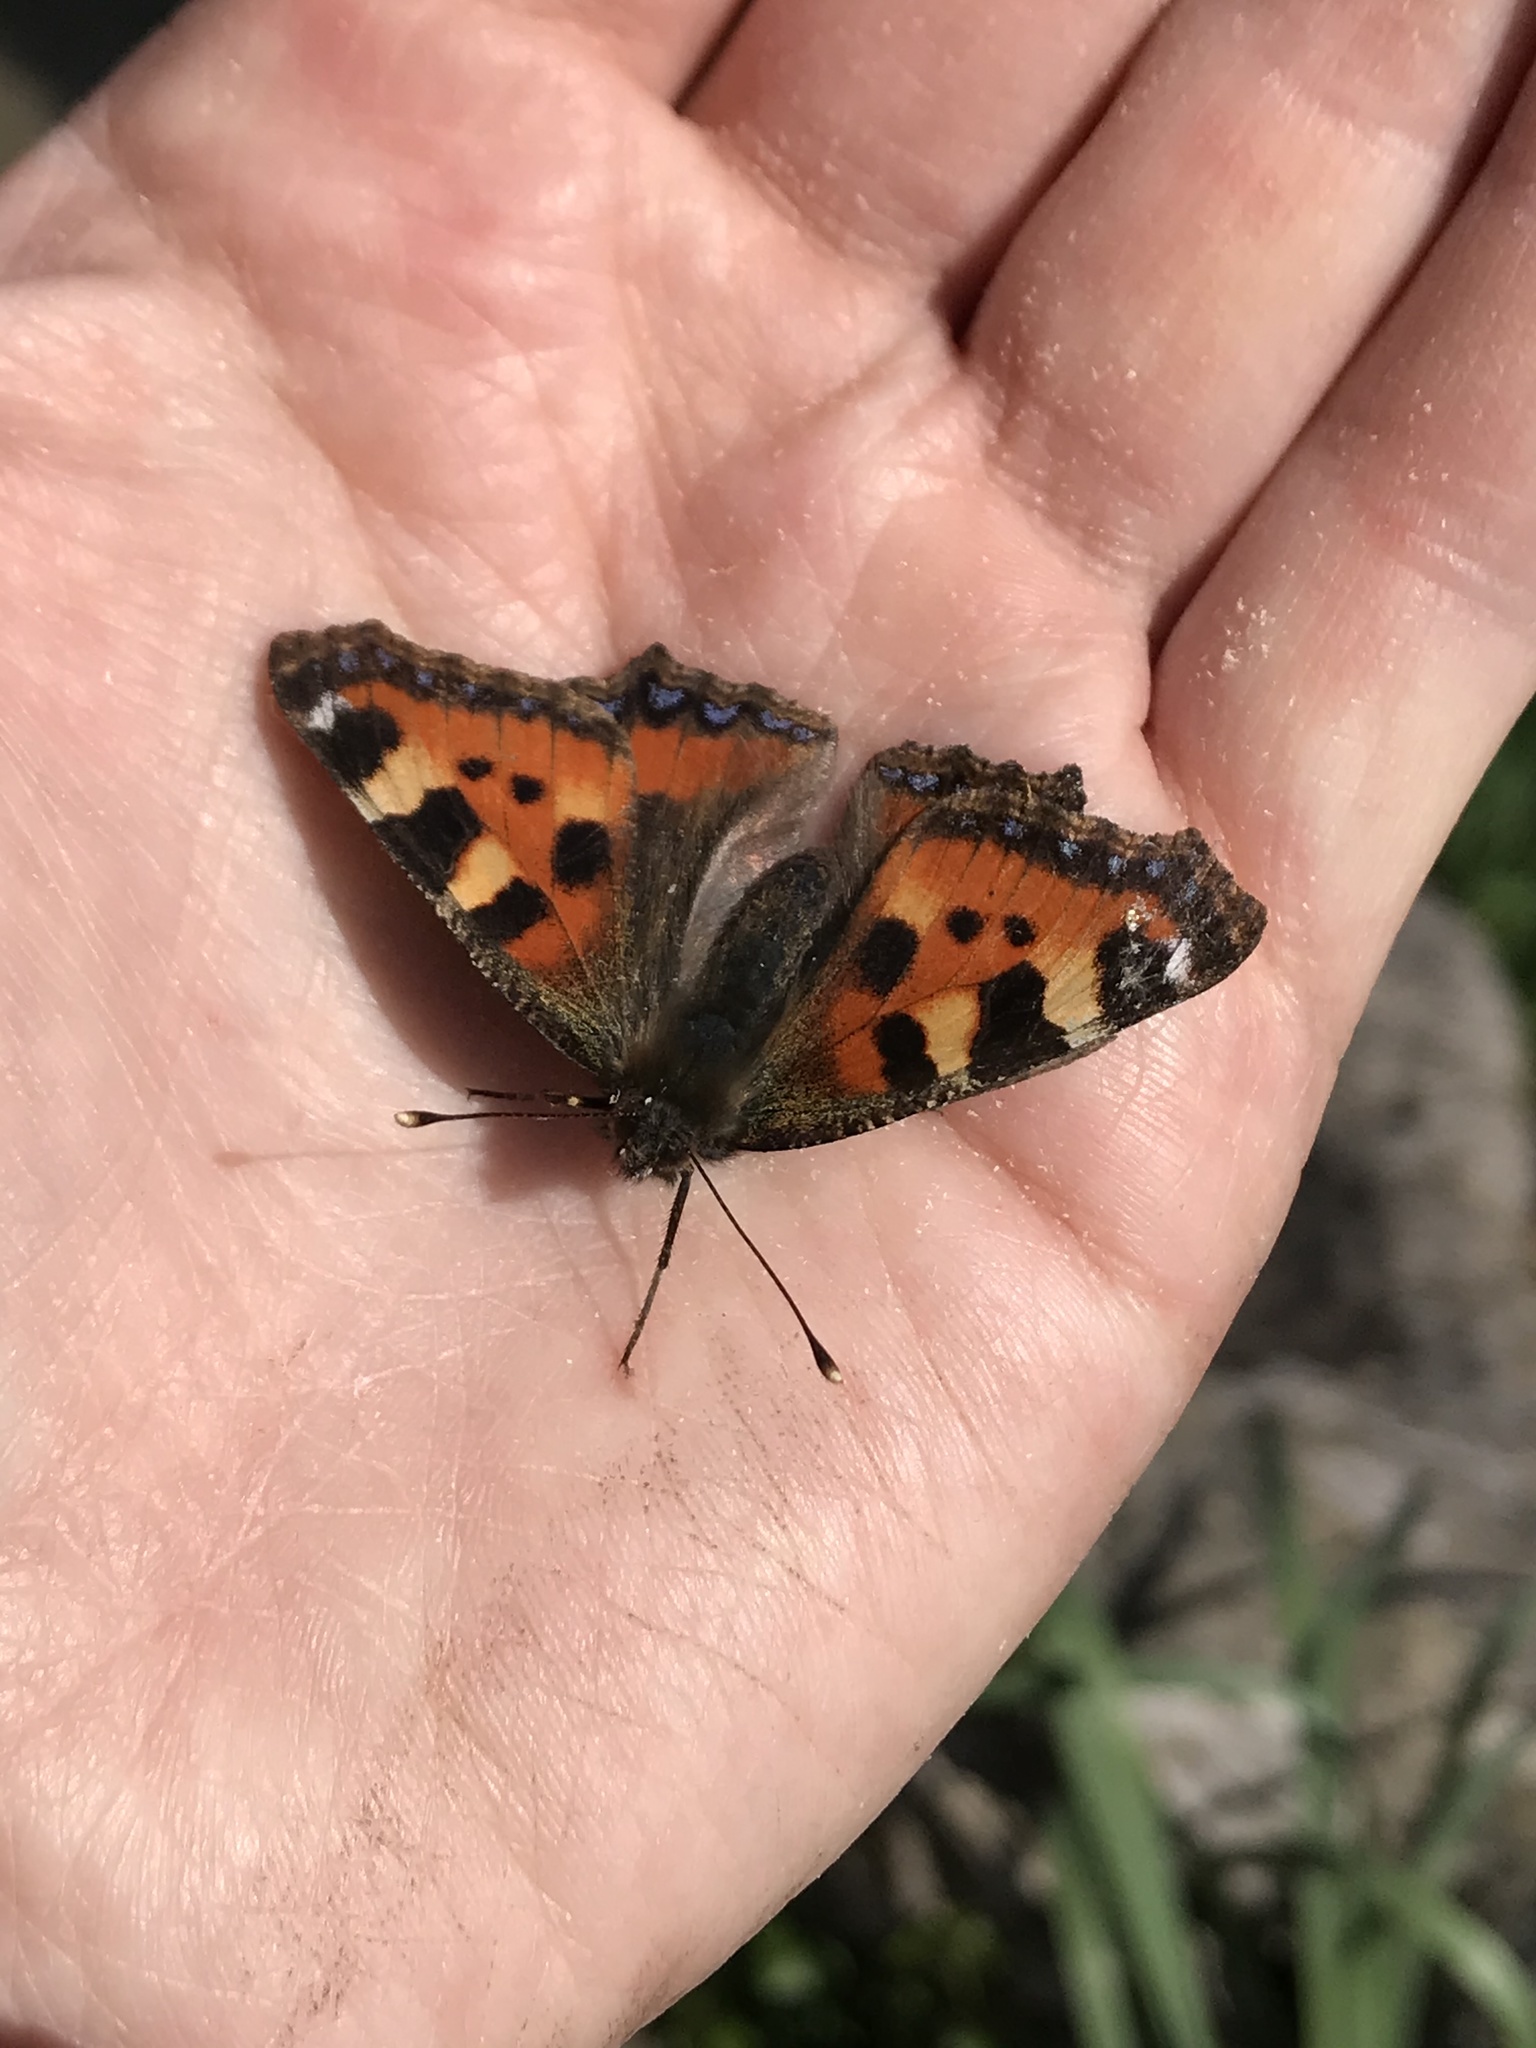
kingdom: Animalia
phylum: Arthropoda
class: Insecta
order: Lepidoptera
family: Nymphalidae
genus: Aglais
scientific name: Aglais urticae
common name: Small tortoiseshell
